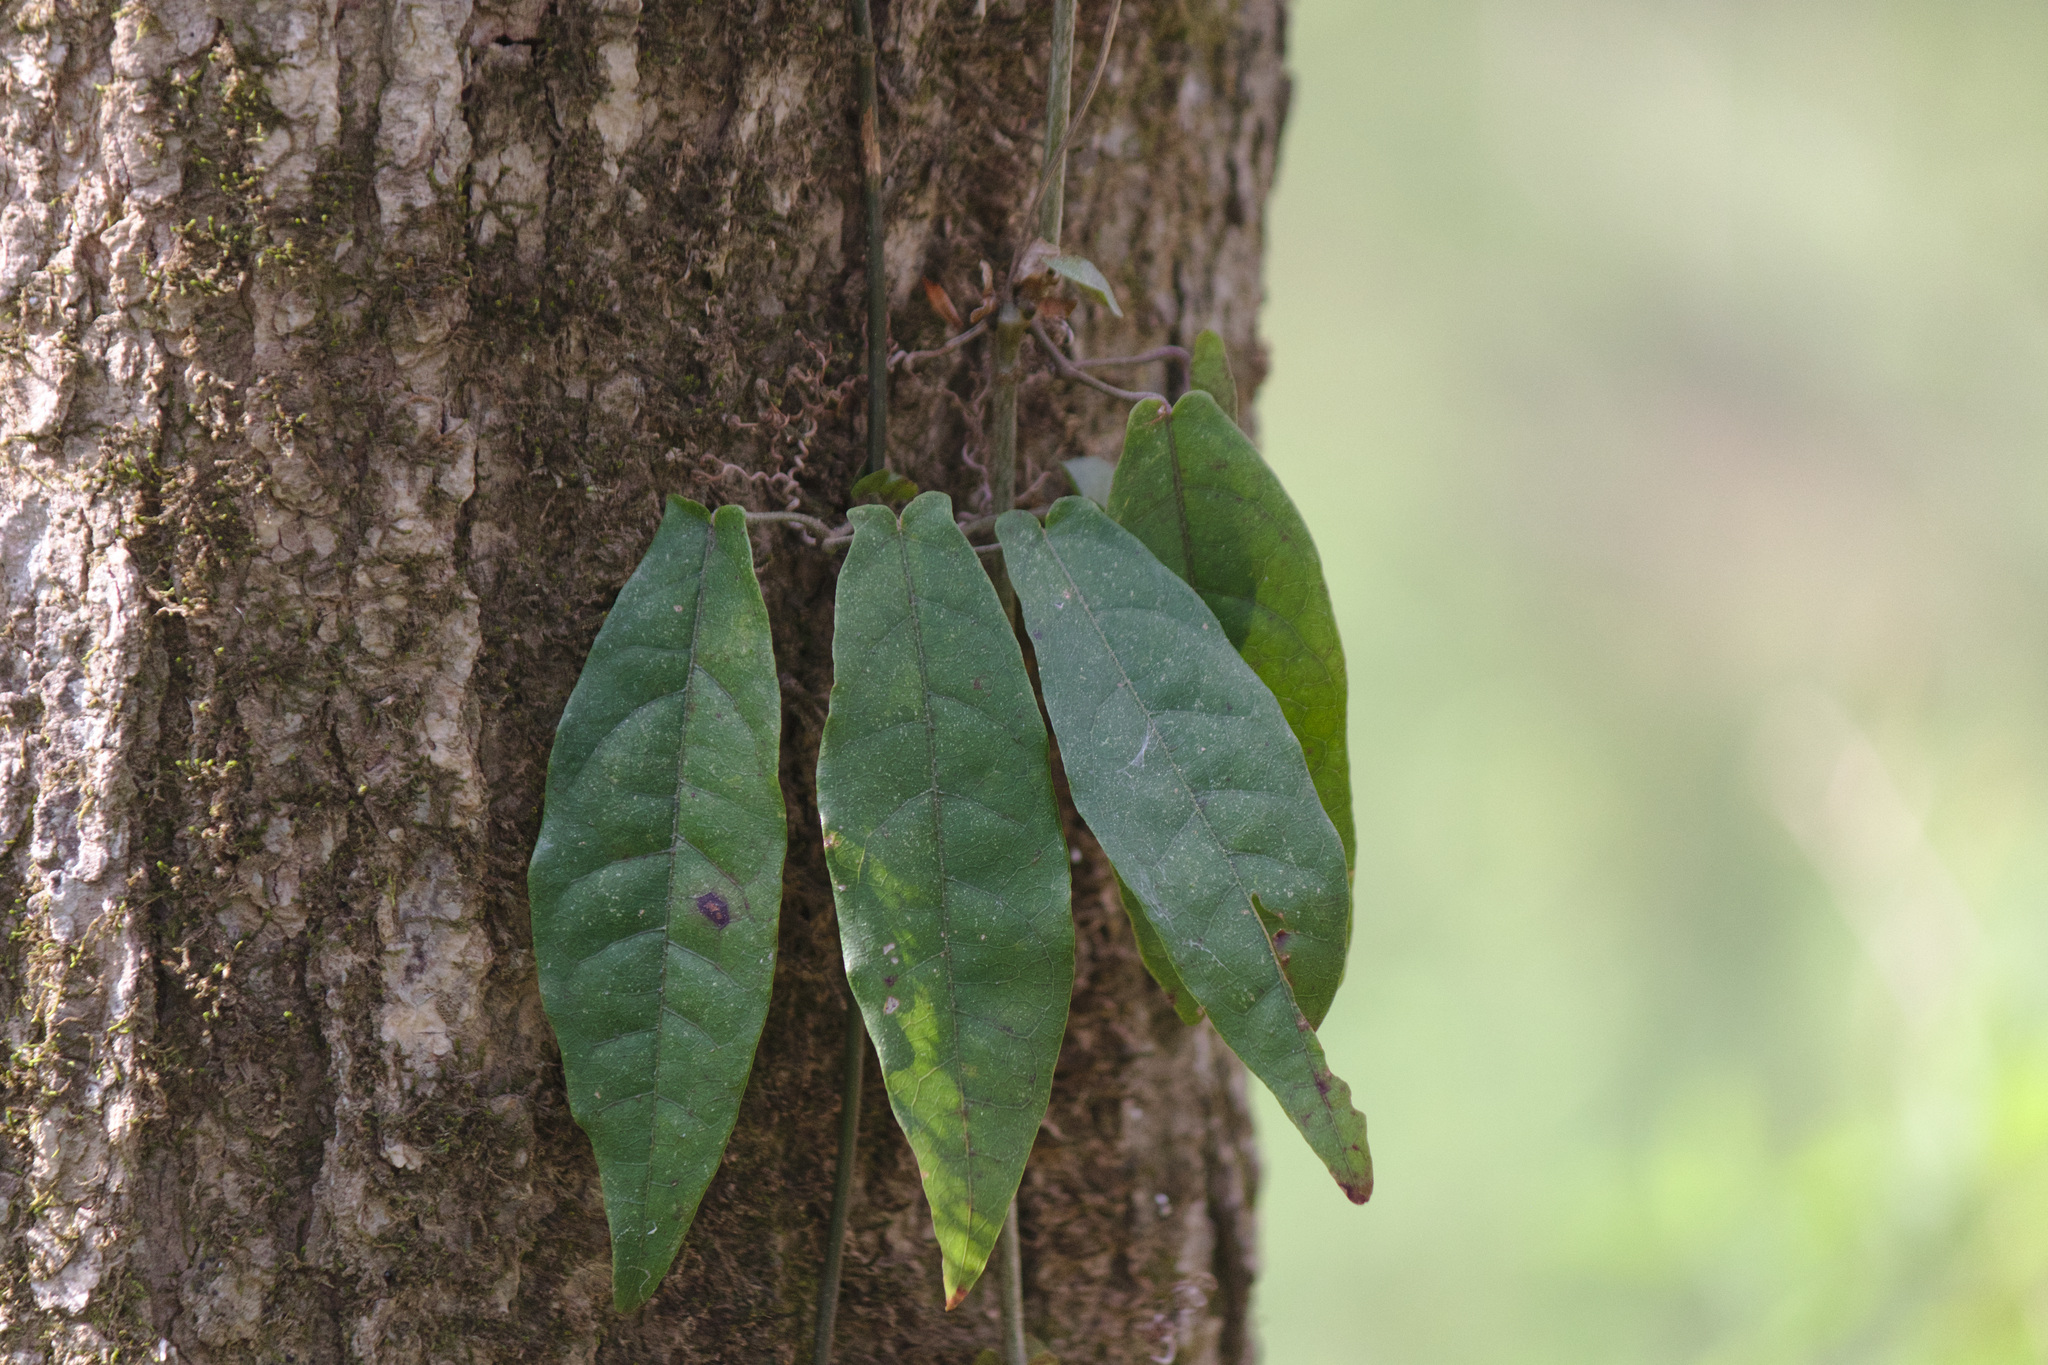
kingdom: Plantae
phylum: Tracheophyta
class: Magnoliopsida
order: Lamiales
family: Bignoniaceae
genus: Bignonia
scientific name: Bignonia capreolata
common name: Crossvine
